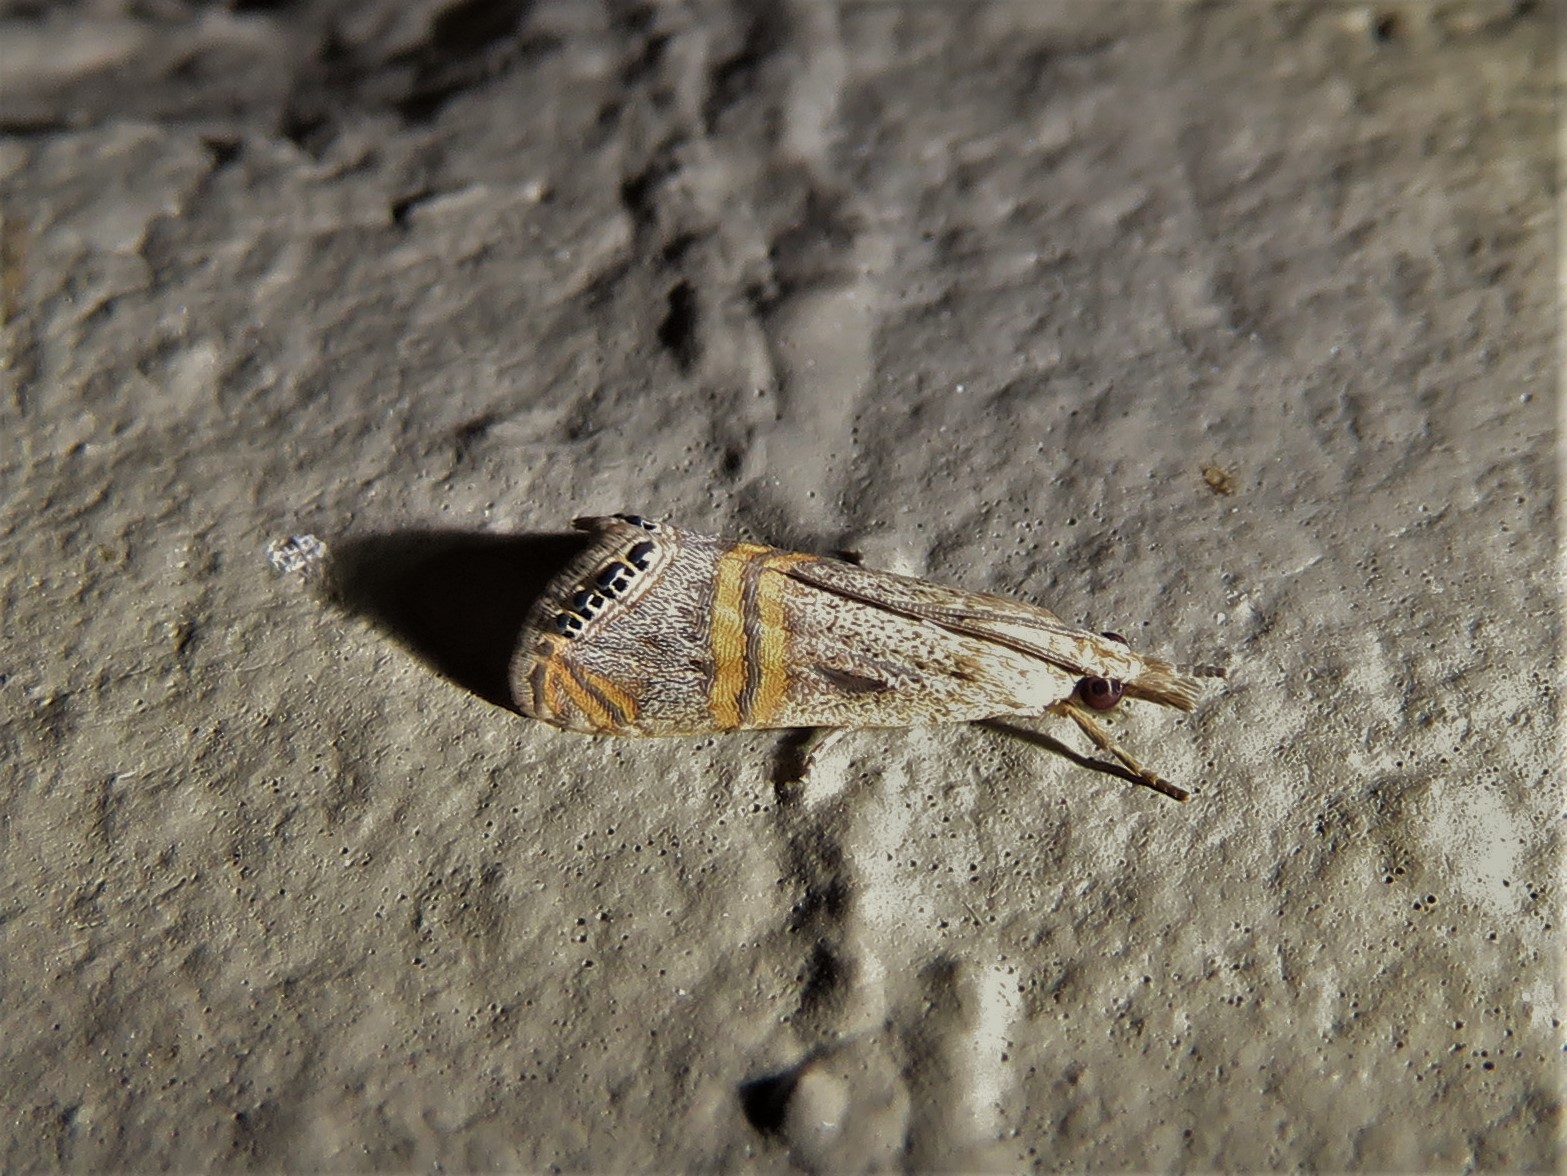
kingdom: Animalia
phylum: Arthropoda
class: Insecta
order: Lepidoptera
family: Crambidae
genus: Euchromius
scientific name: Euchromius ocellea
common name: Necklace veneer moth
